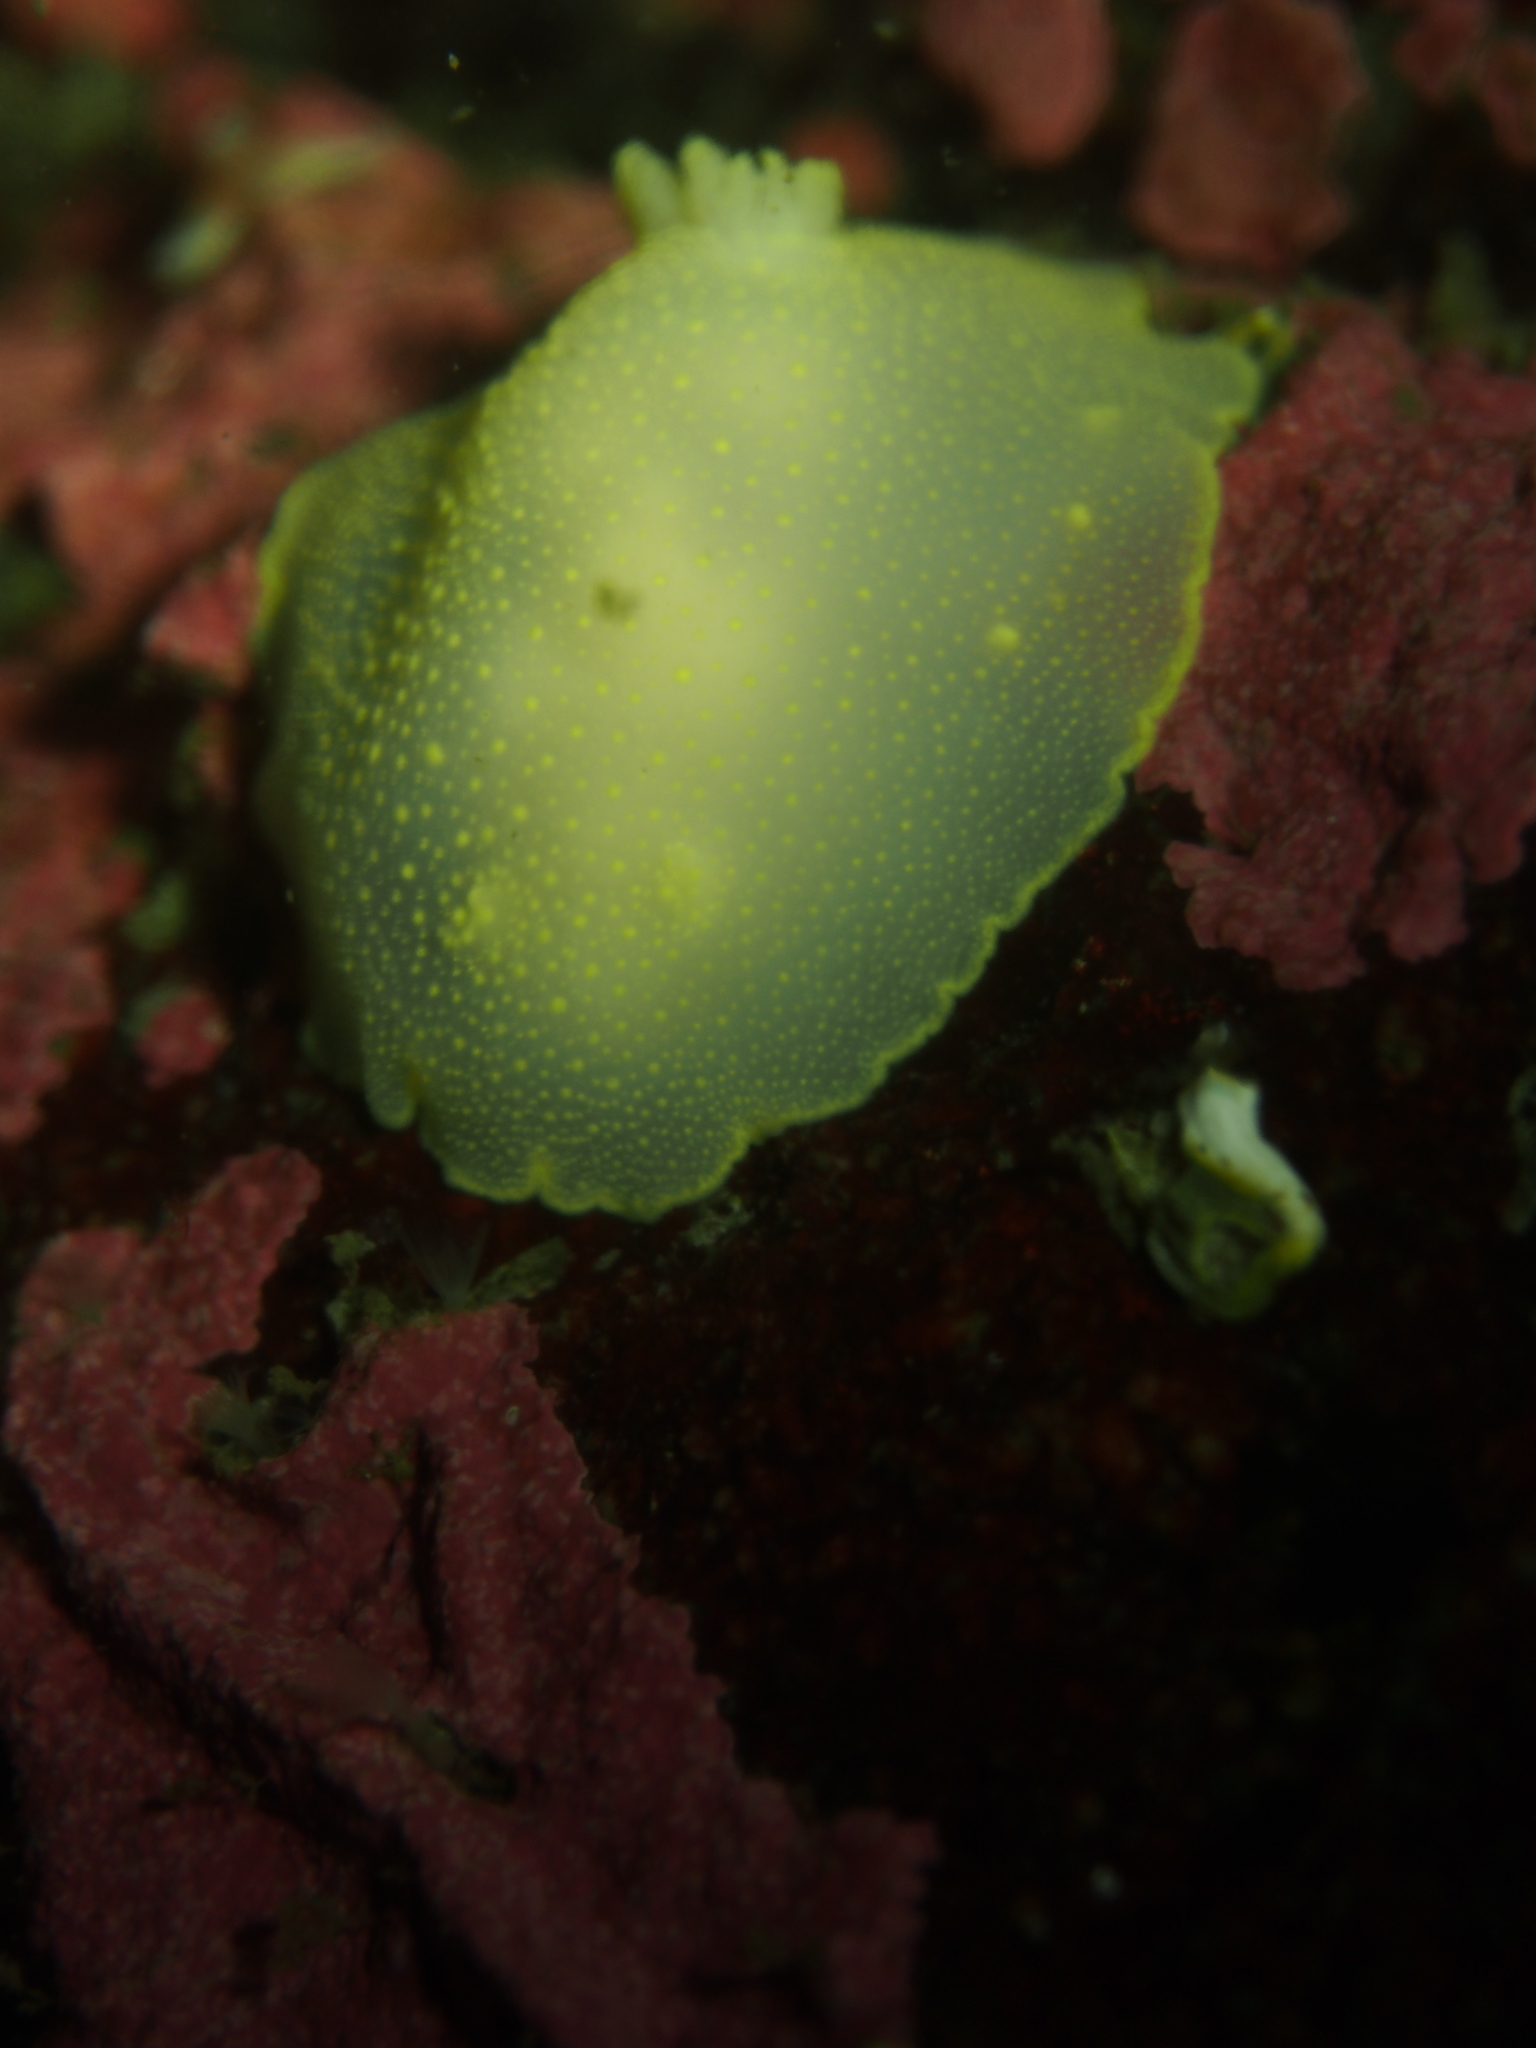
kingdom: Animalia
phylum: Mollusca
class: Gastropoda
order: Nudibranchia
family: Cadlinidae
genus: Cadlina
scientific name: Cadlina laevis
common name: White atlantic cadlina
